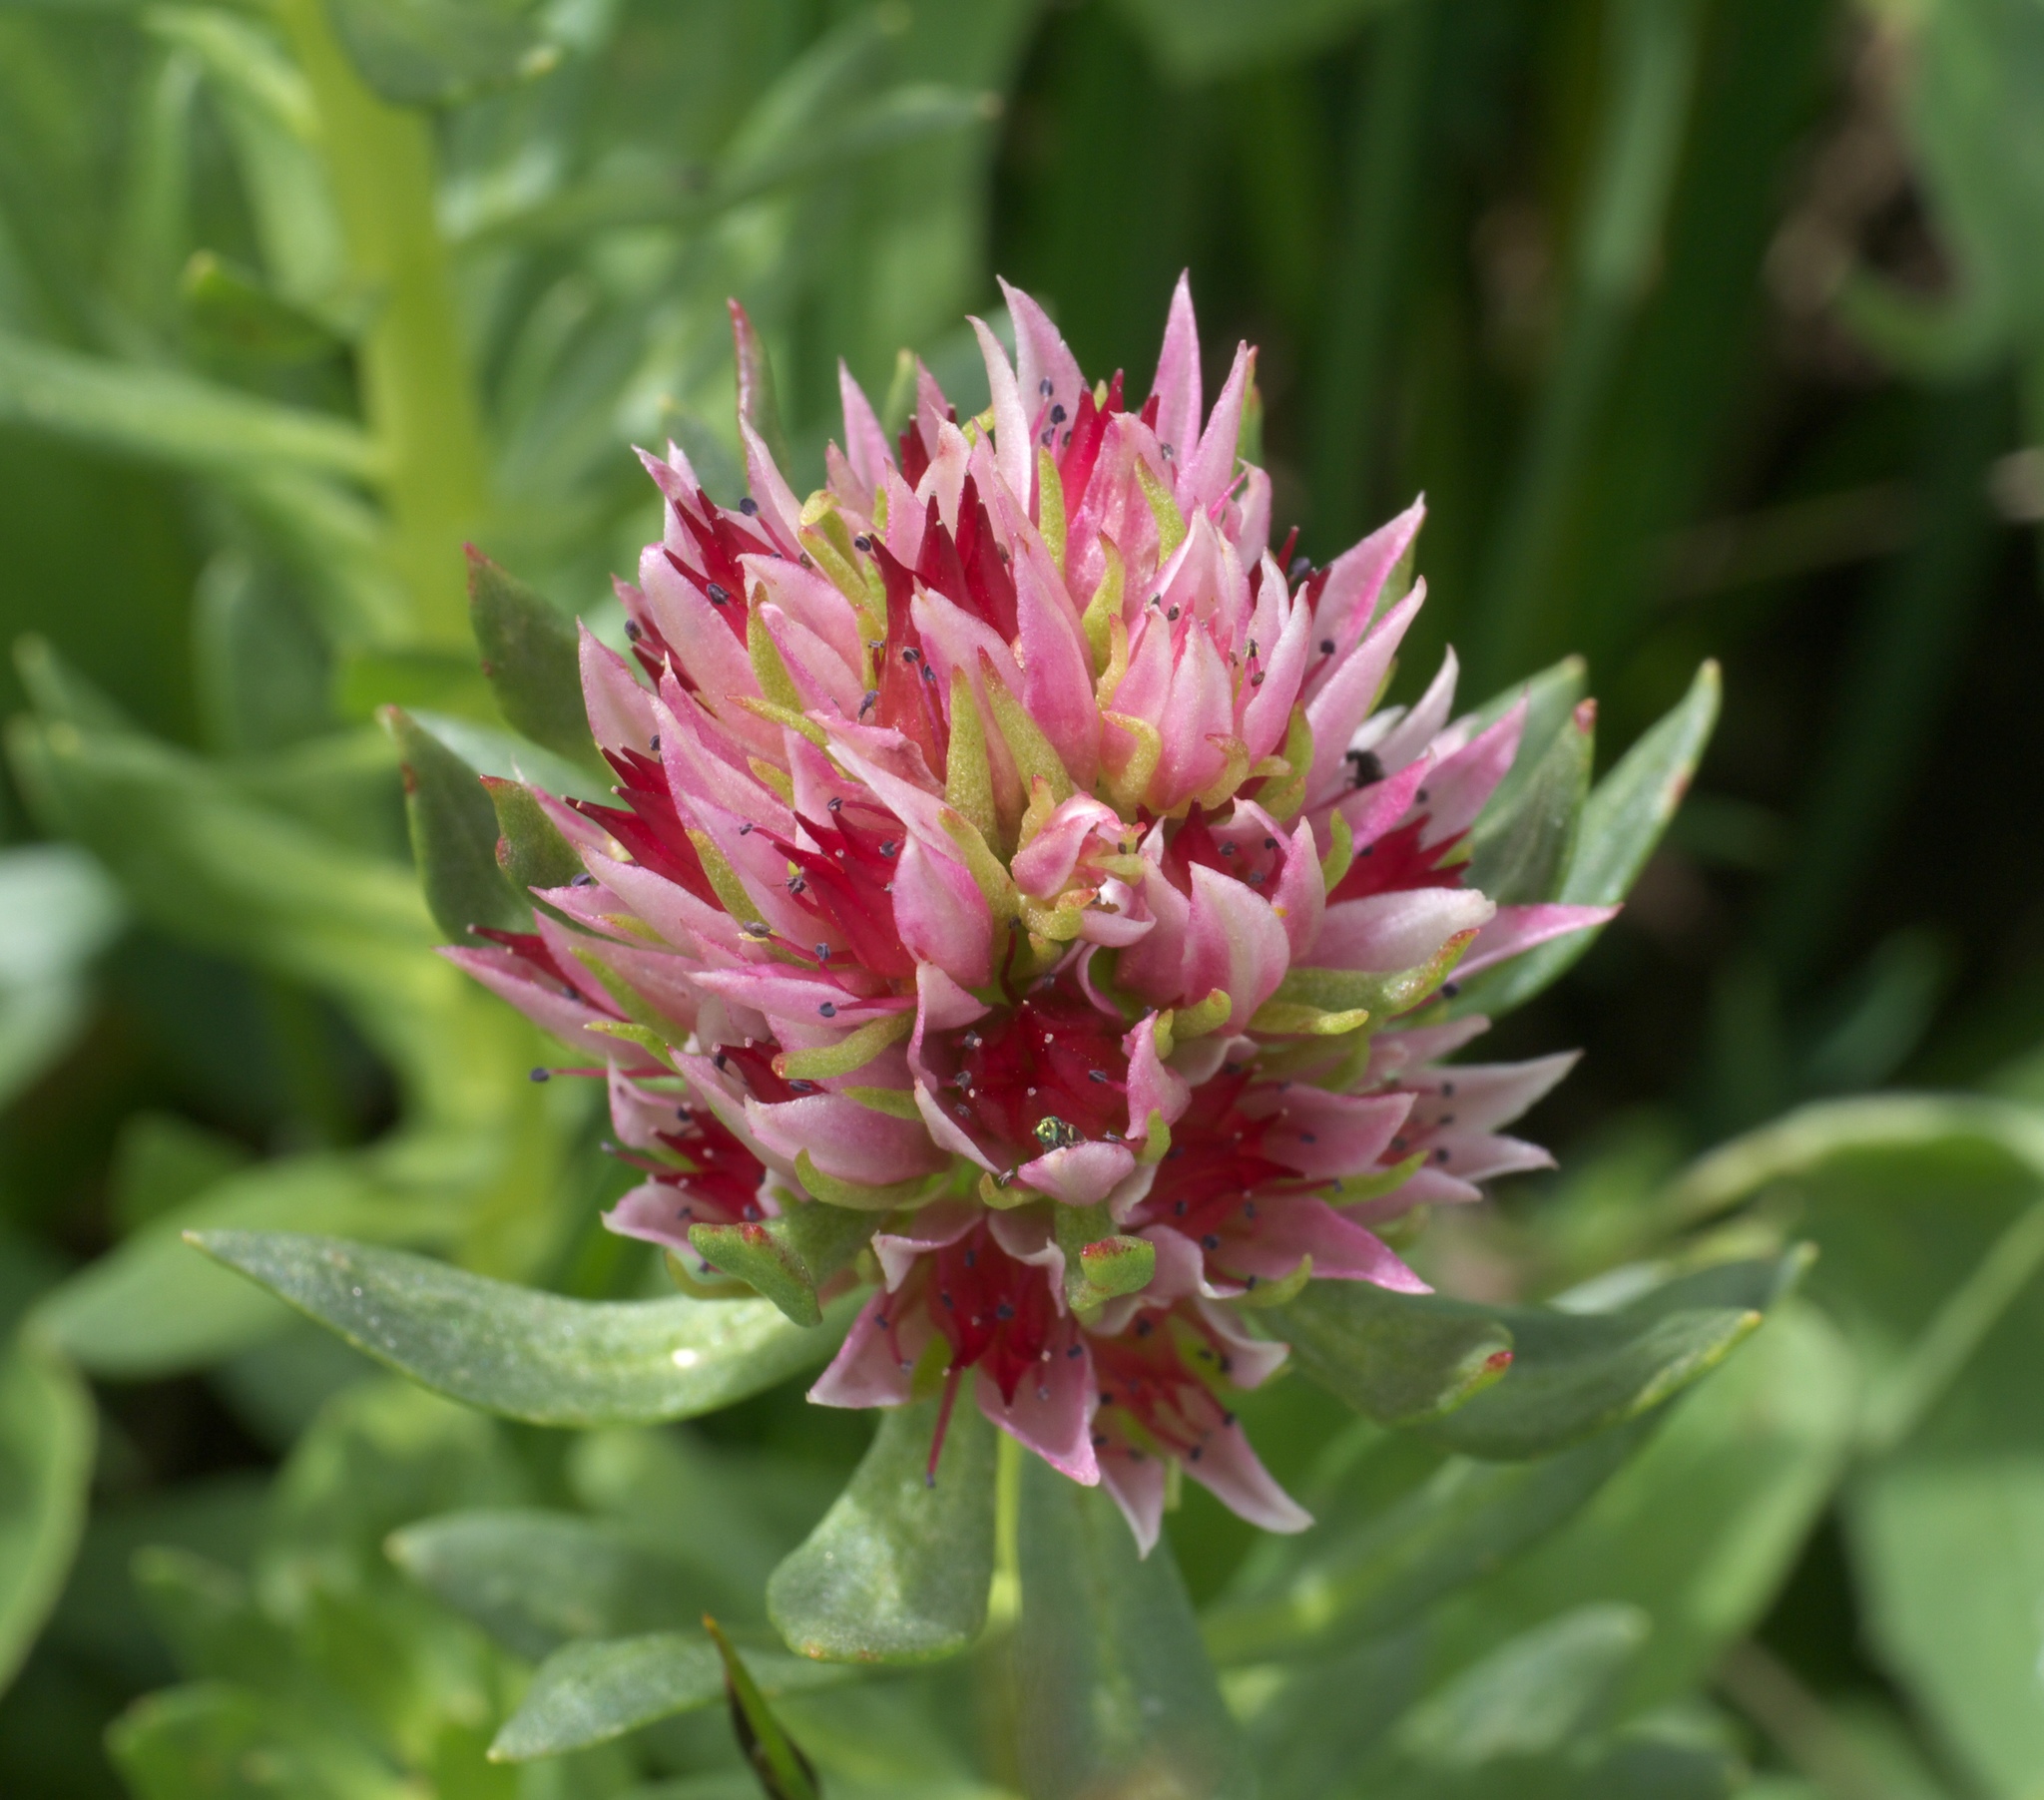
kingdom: Plantae
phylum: Tracheophyta
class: Magnoliopsida
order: Saxifragales
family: Crassulaceae
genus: Rhodiola
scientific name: Rhodiola rhodantha
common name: Red orpine
